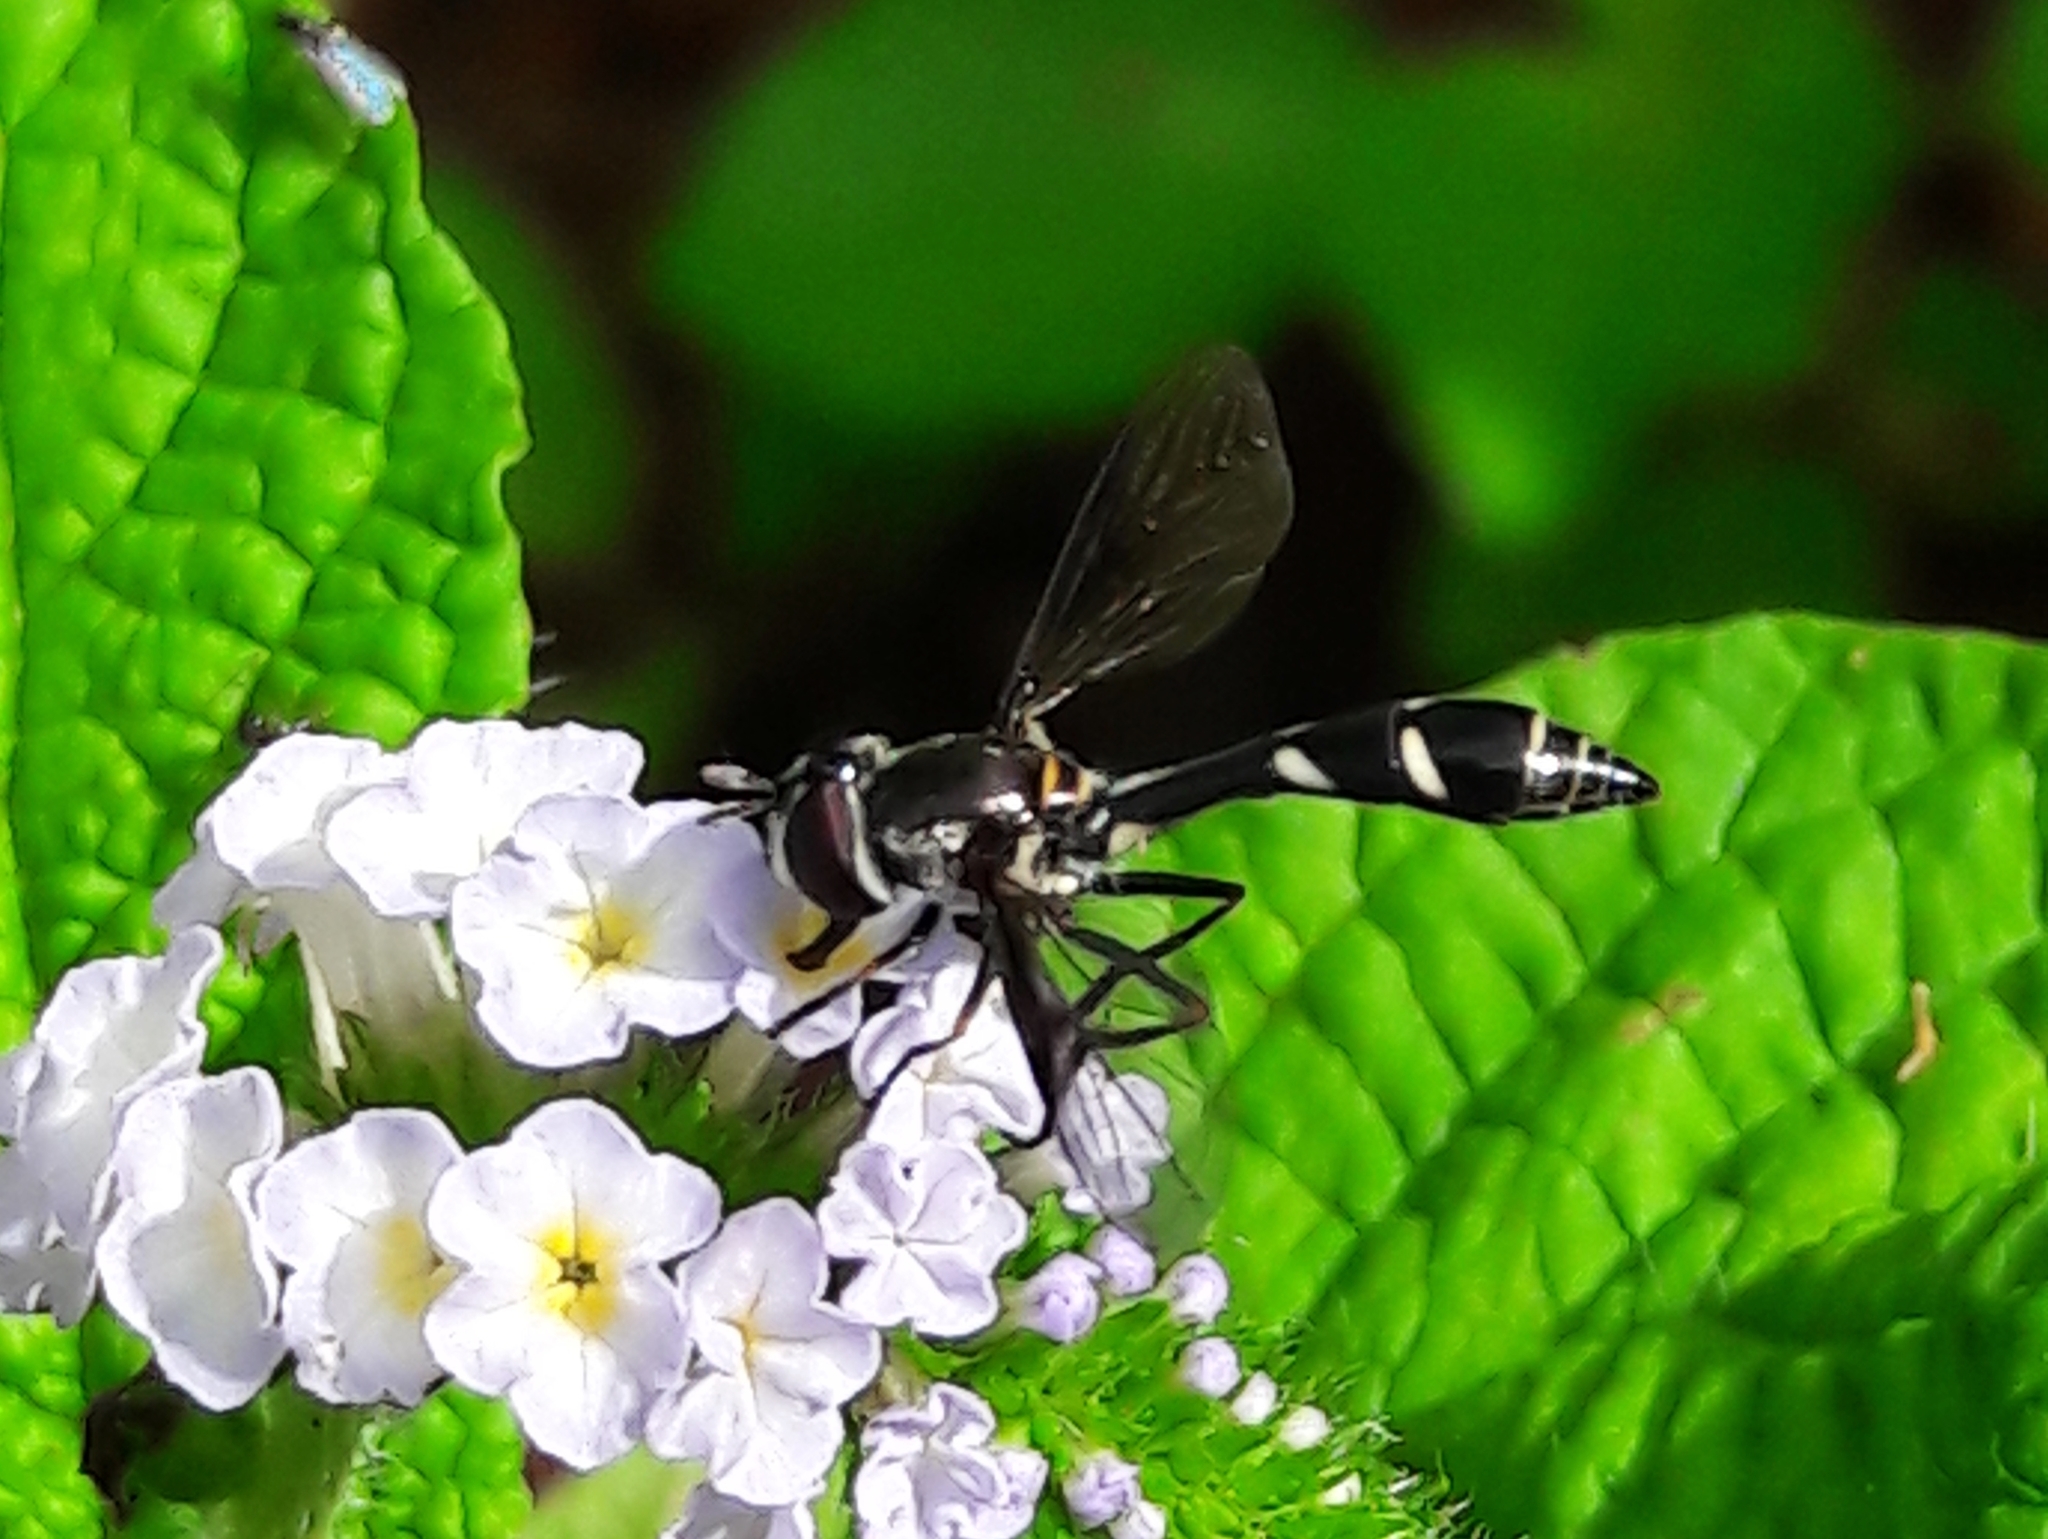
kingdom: Animalia
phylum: Arthropoda
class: Insecta
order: Diptera
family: Syrphidae
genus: Dioprosopa
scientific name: Dioprosopa clavatus
